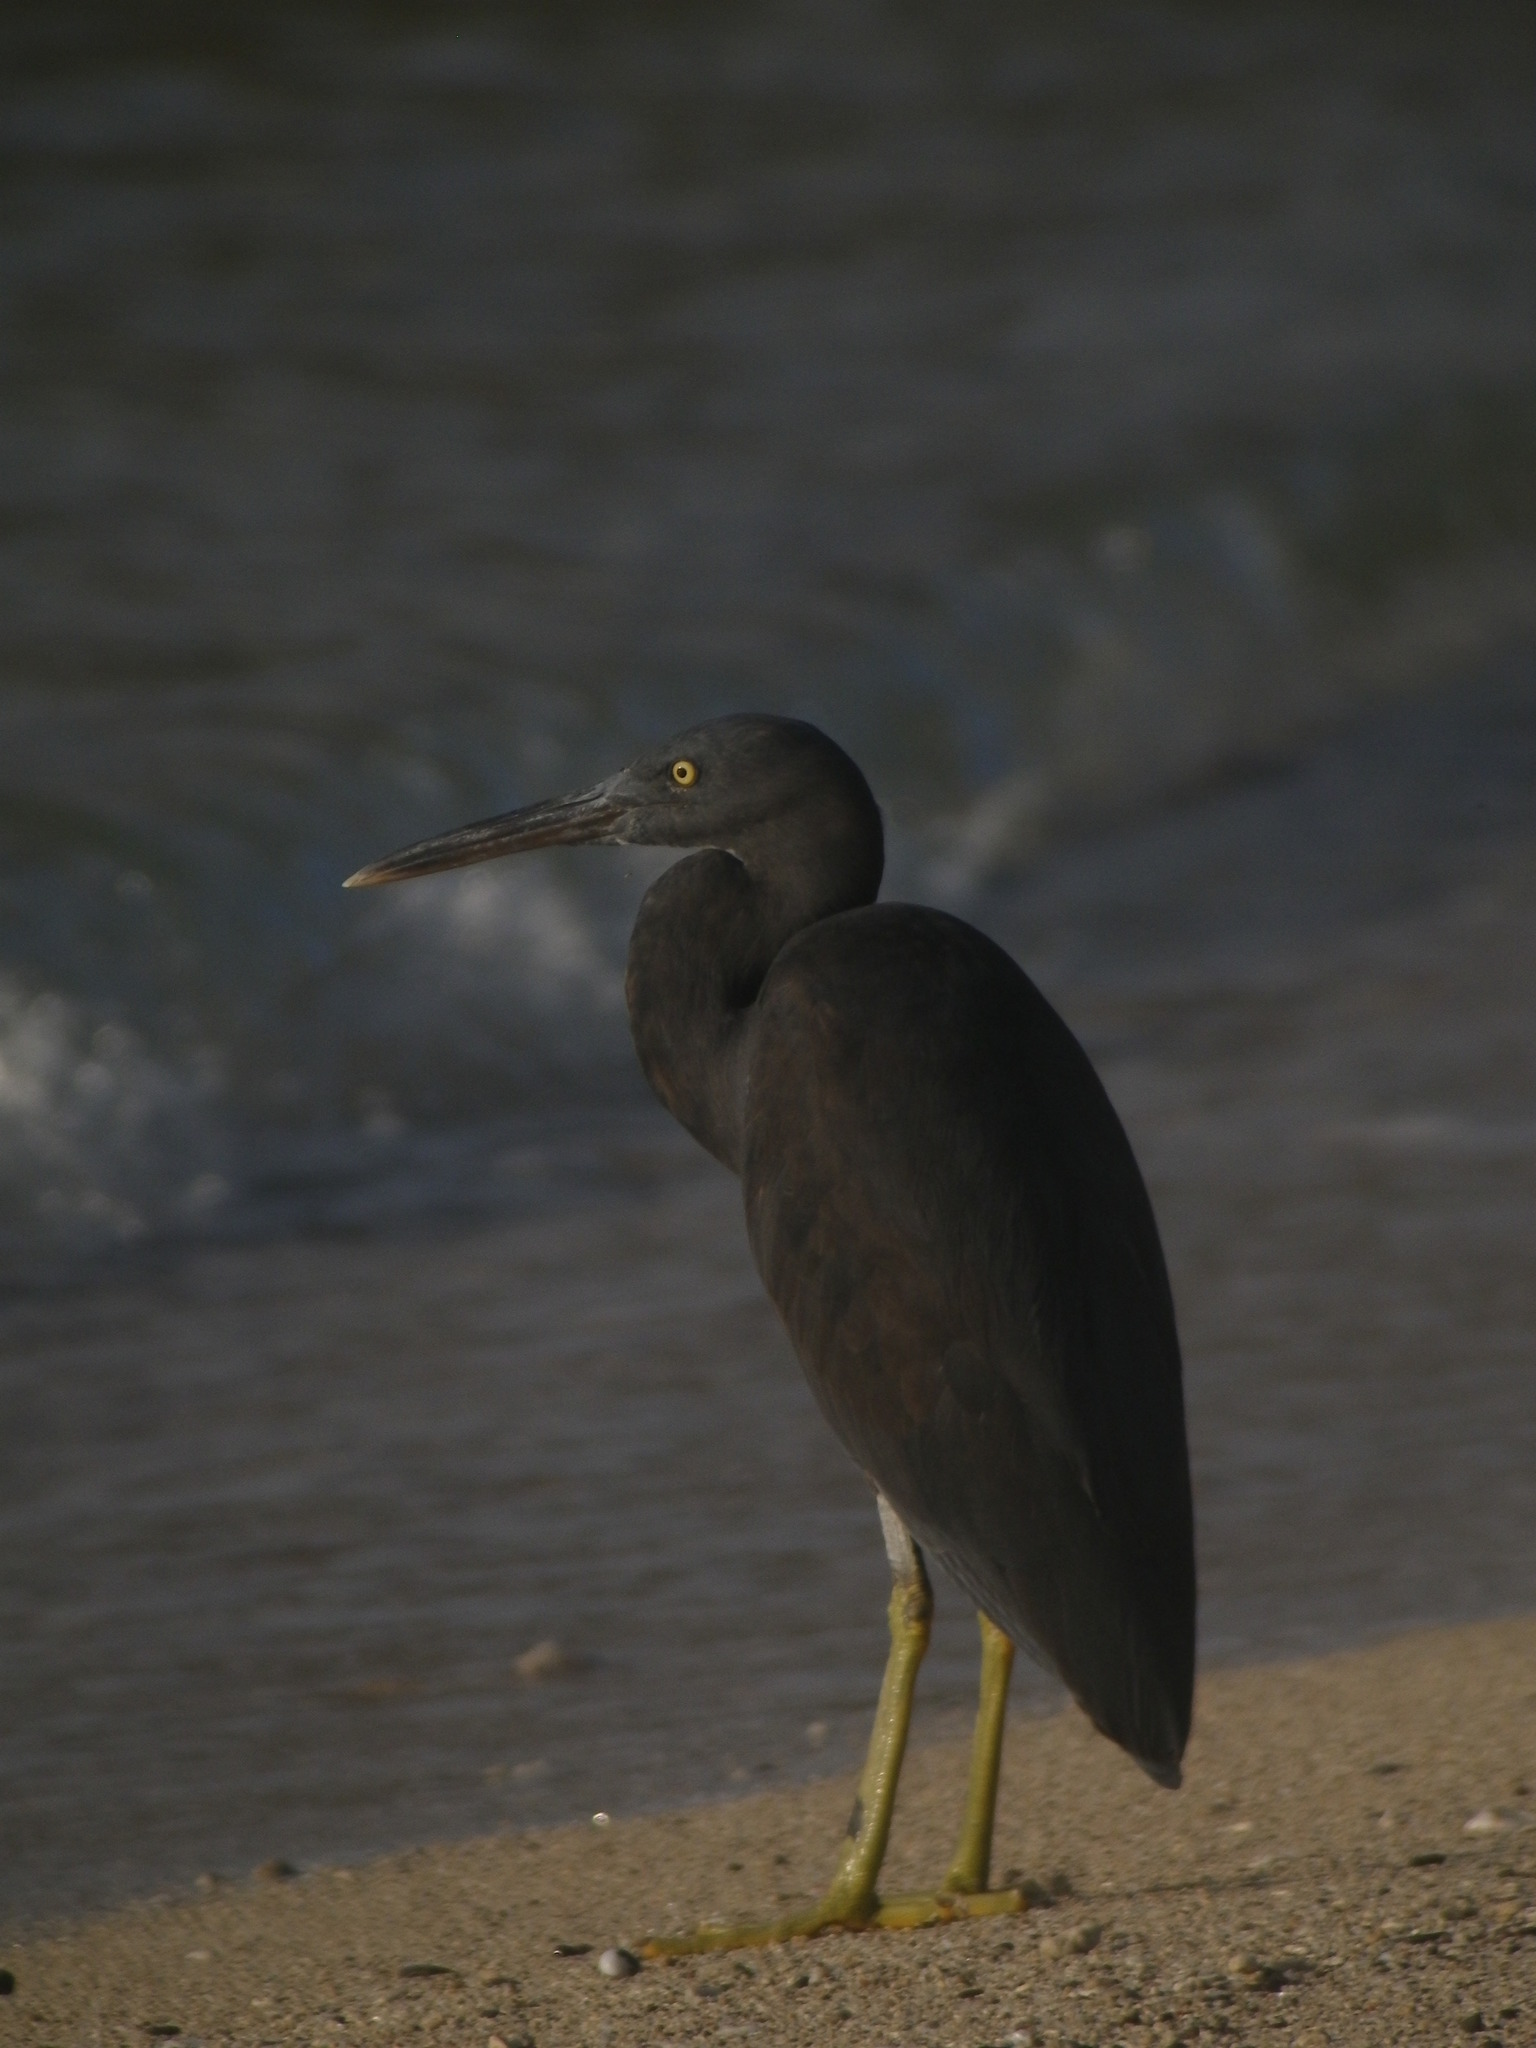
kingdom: Animalia
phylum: Chordata
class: Aves
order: Pelecaniformes
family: Ardeidae
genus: Egretta
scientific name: Egretta sacra
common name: Pacific reef heron
